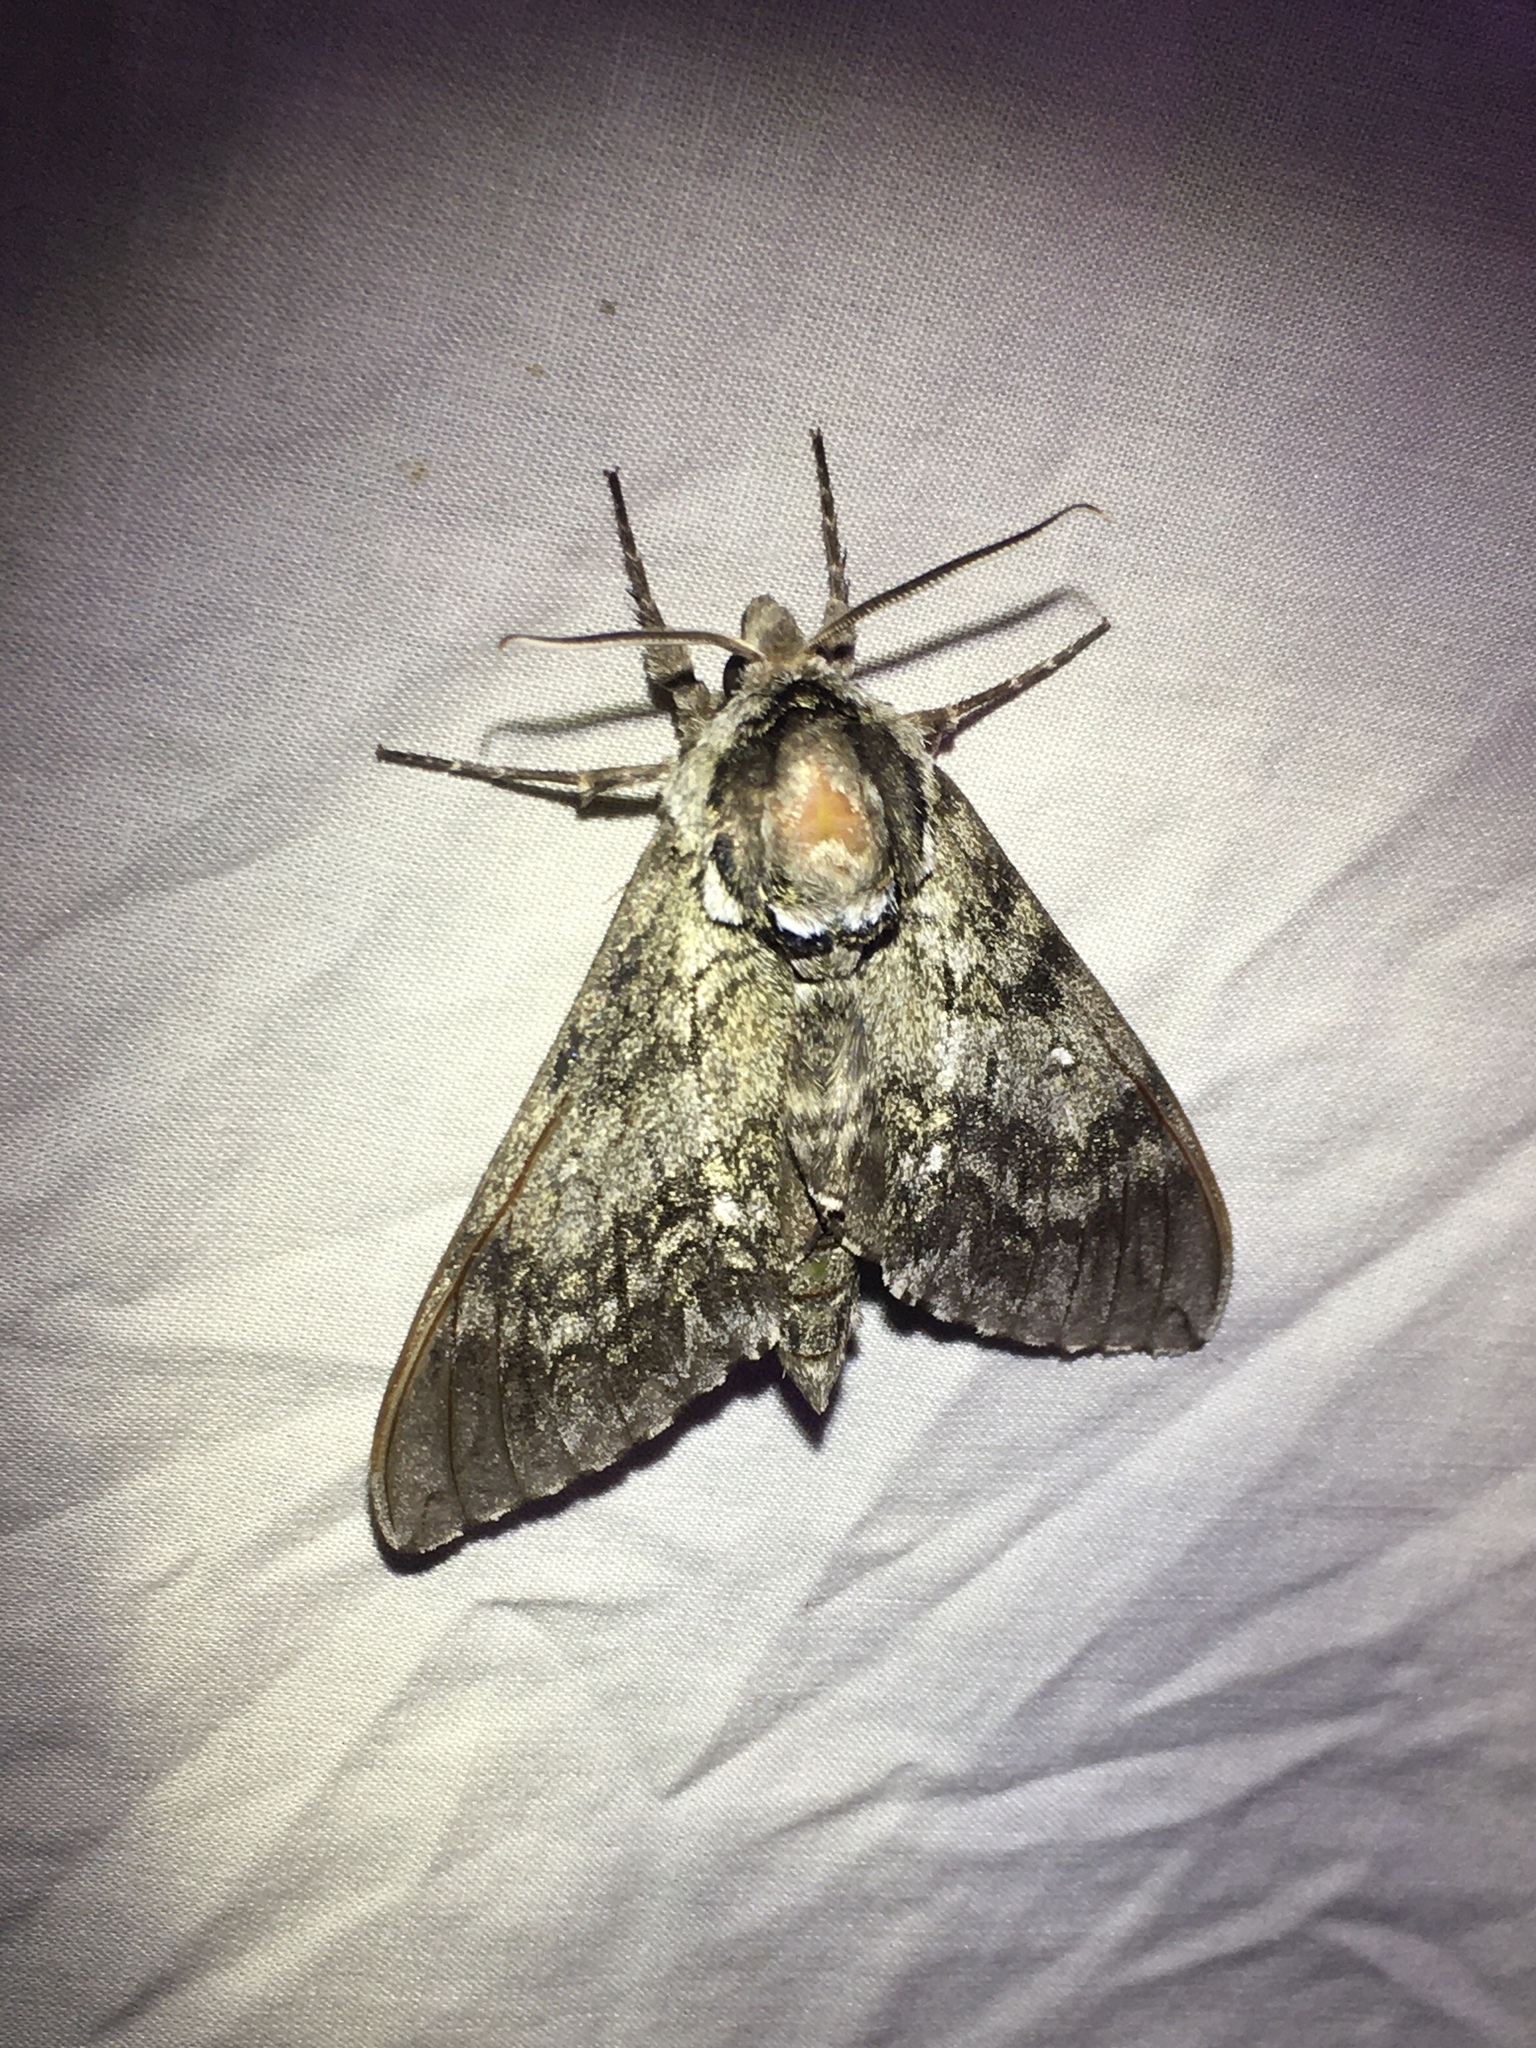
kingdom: Animalia
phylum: Arthropoda
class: Insecta
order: Lepidoptera
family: Sphingidae
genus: Ceratomia
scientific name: Ceratomia undulosa
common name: Waved sphinx
